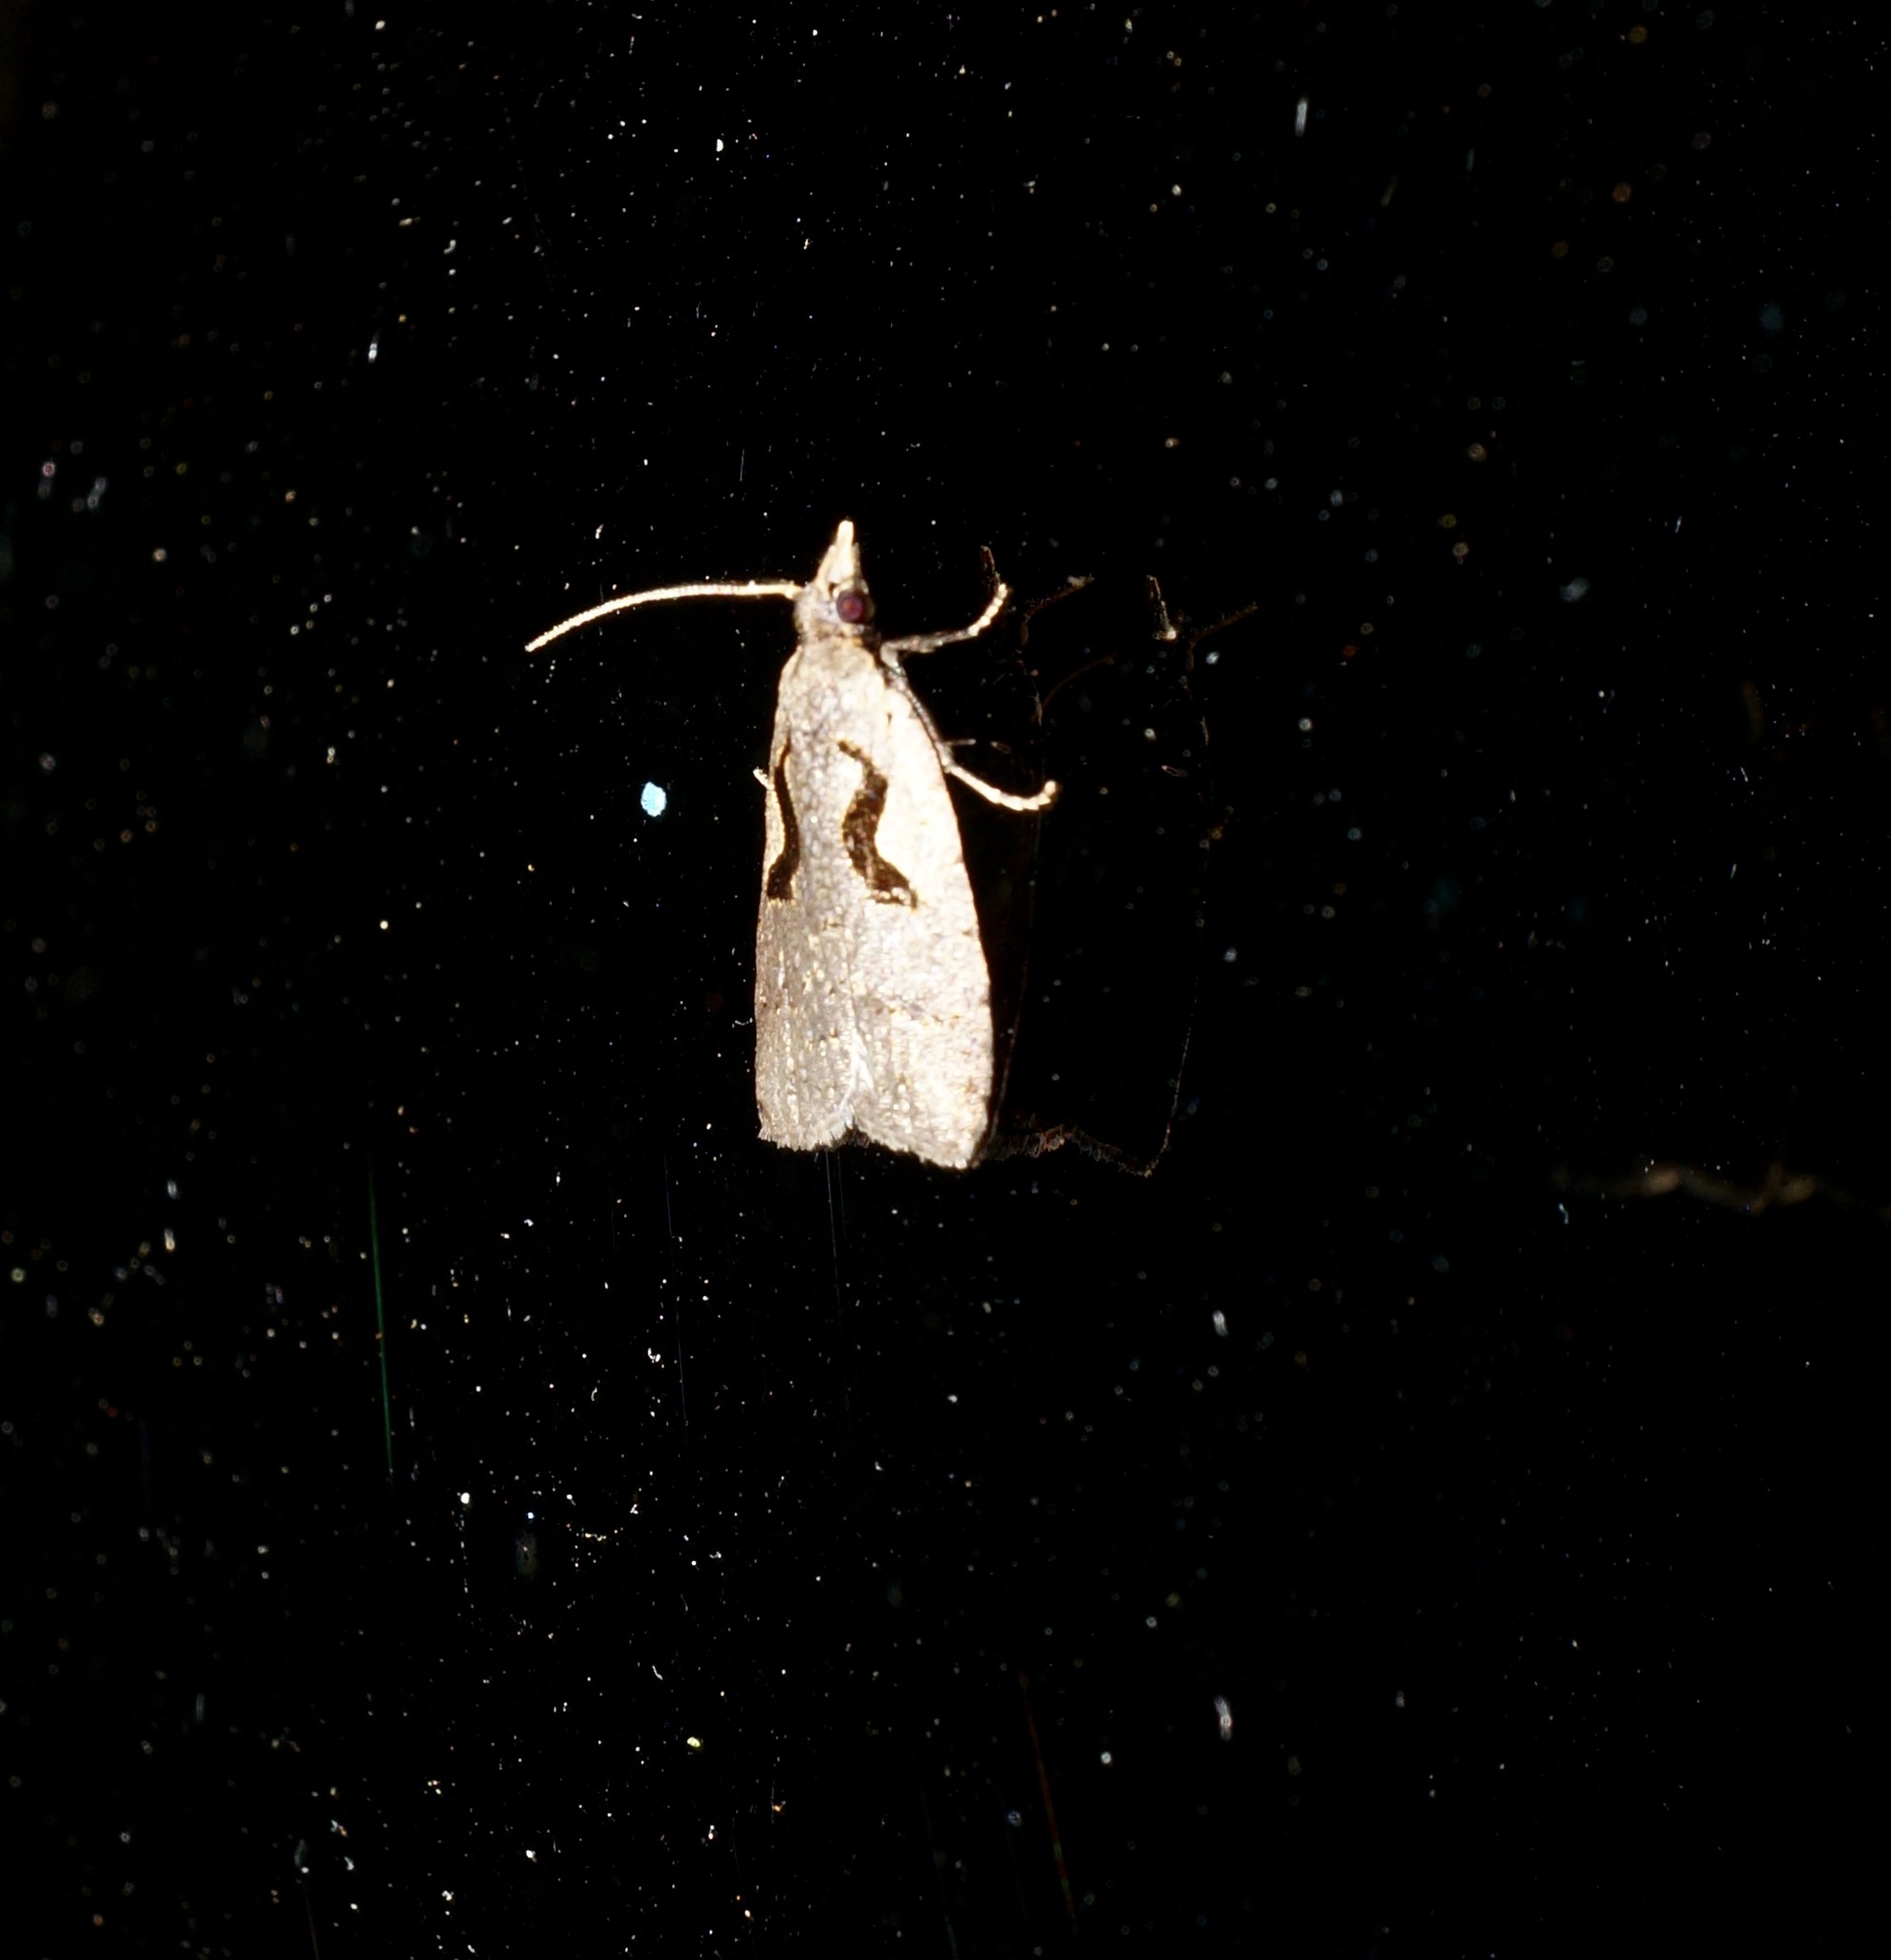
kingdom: Animalia
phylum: Arthropoda
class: Insecta
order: Lepidoptera
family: Tortricidae
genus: Cnephasia
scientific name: Cnephasia jactatana
